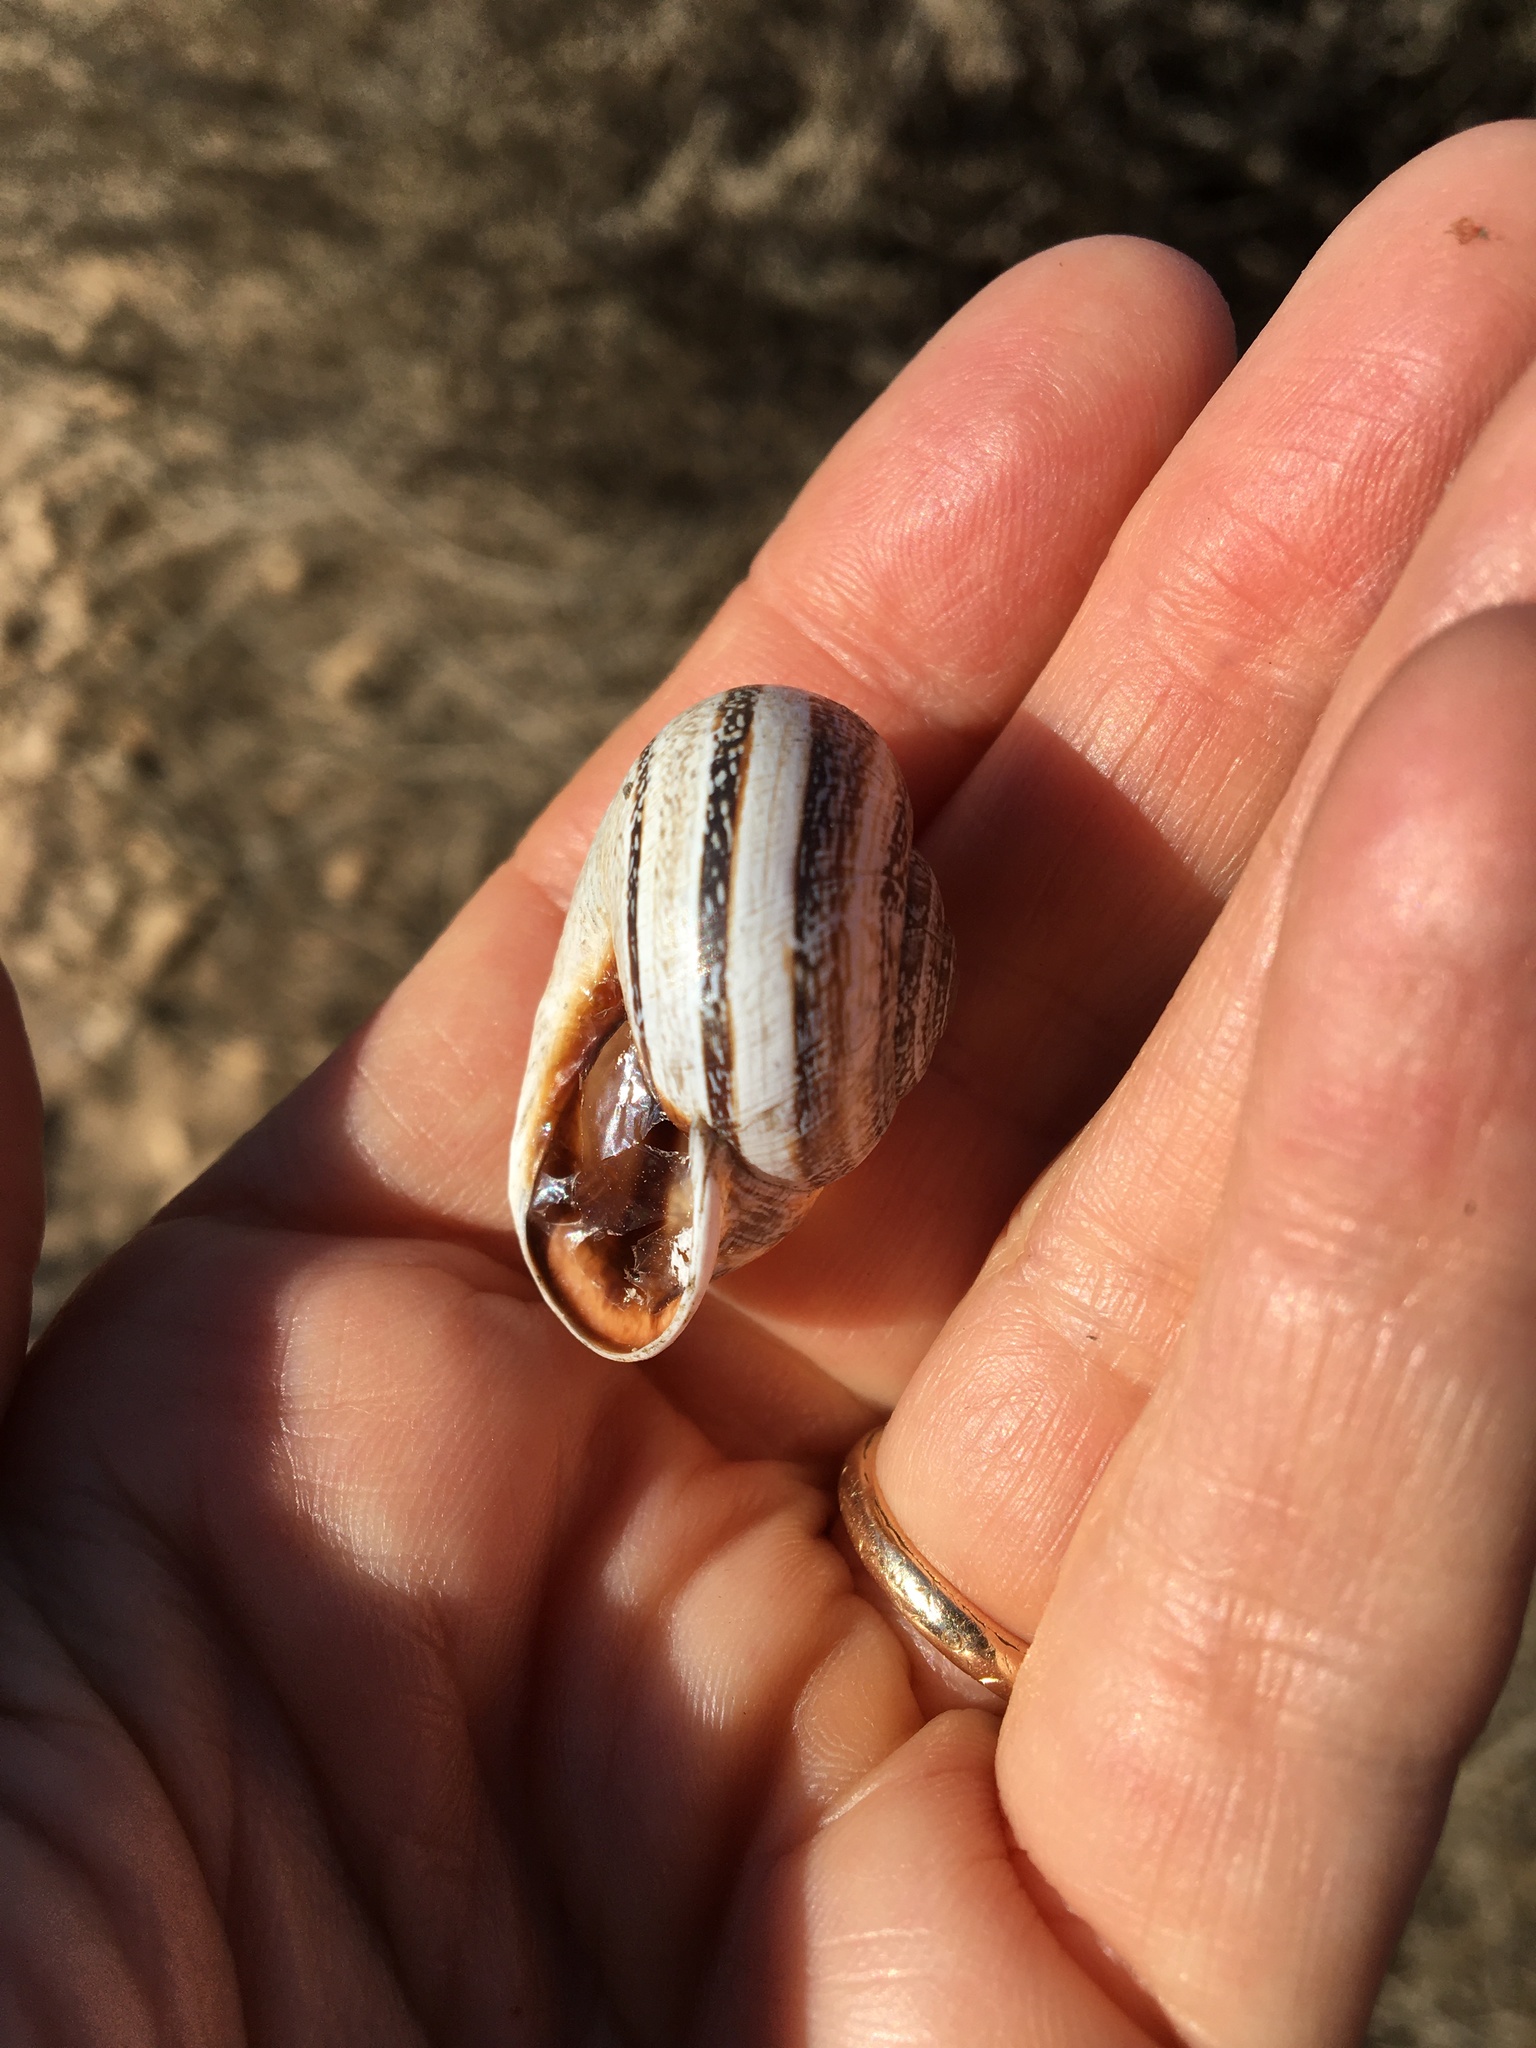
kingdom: Animalia
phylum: Mollusca
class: Gastropoda
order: Stylommatophora
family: Helicidae
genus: Otala
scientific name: Otala lactea
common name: Milk snail
